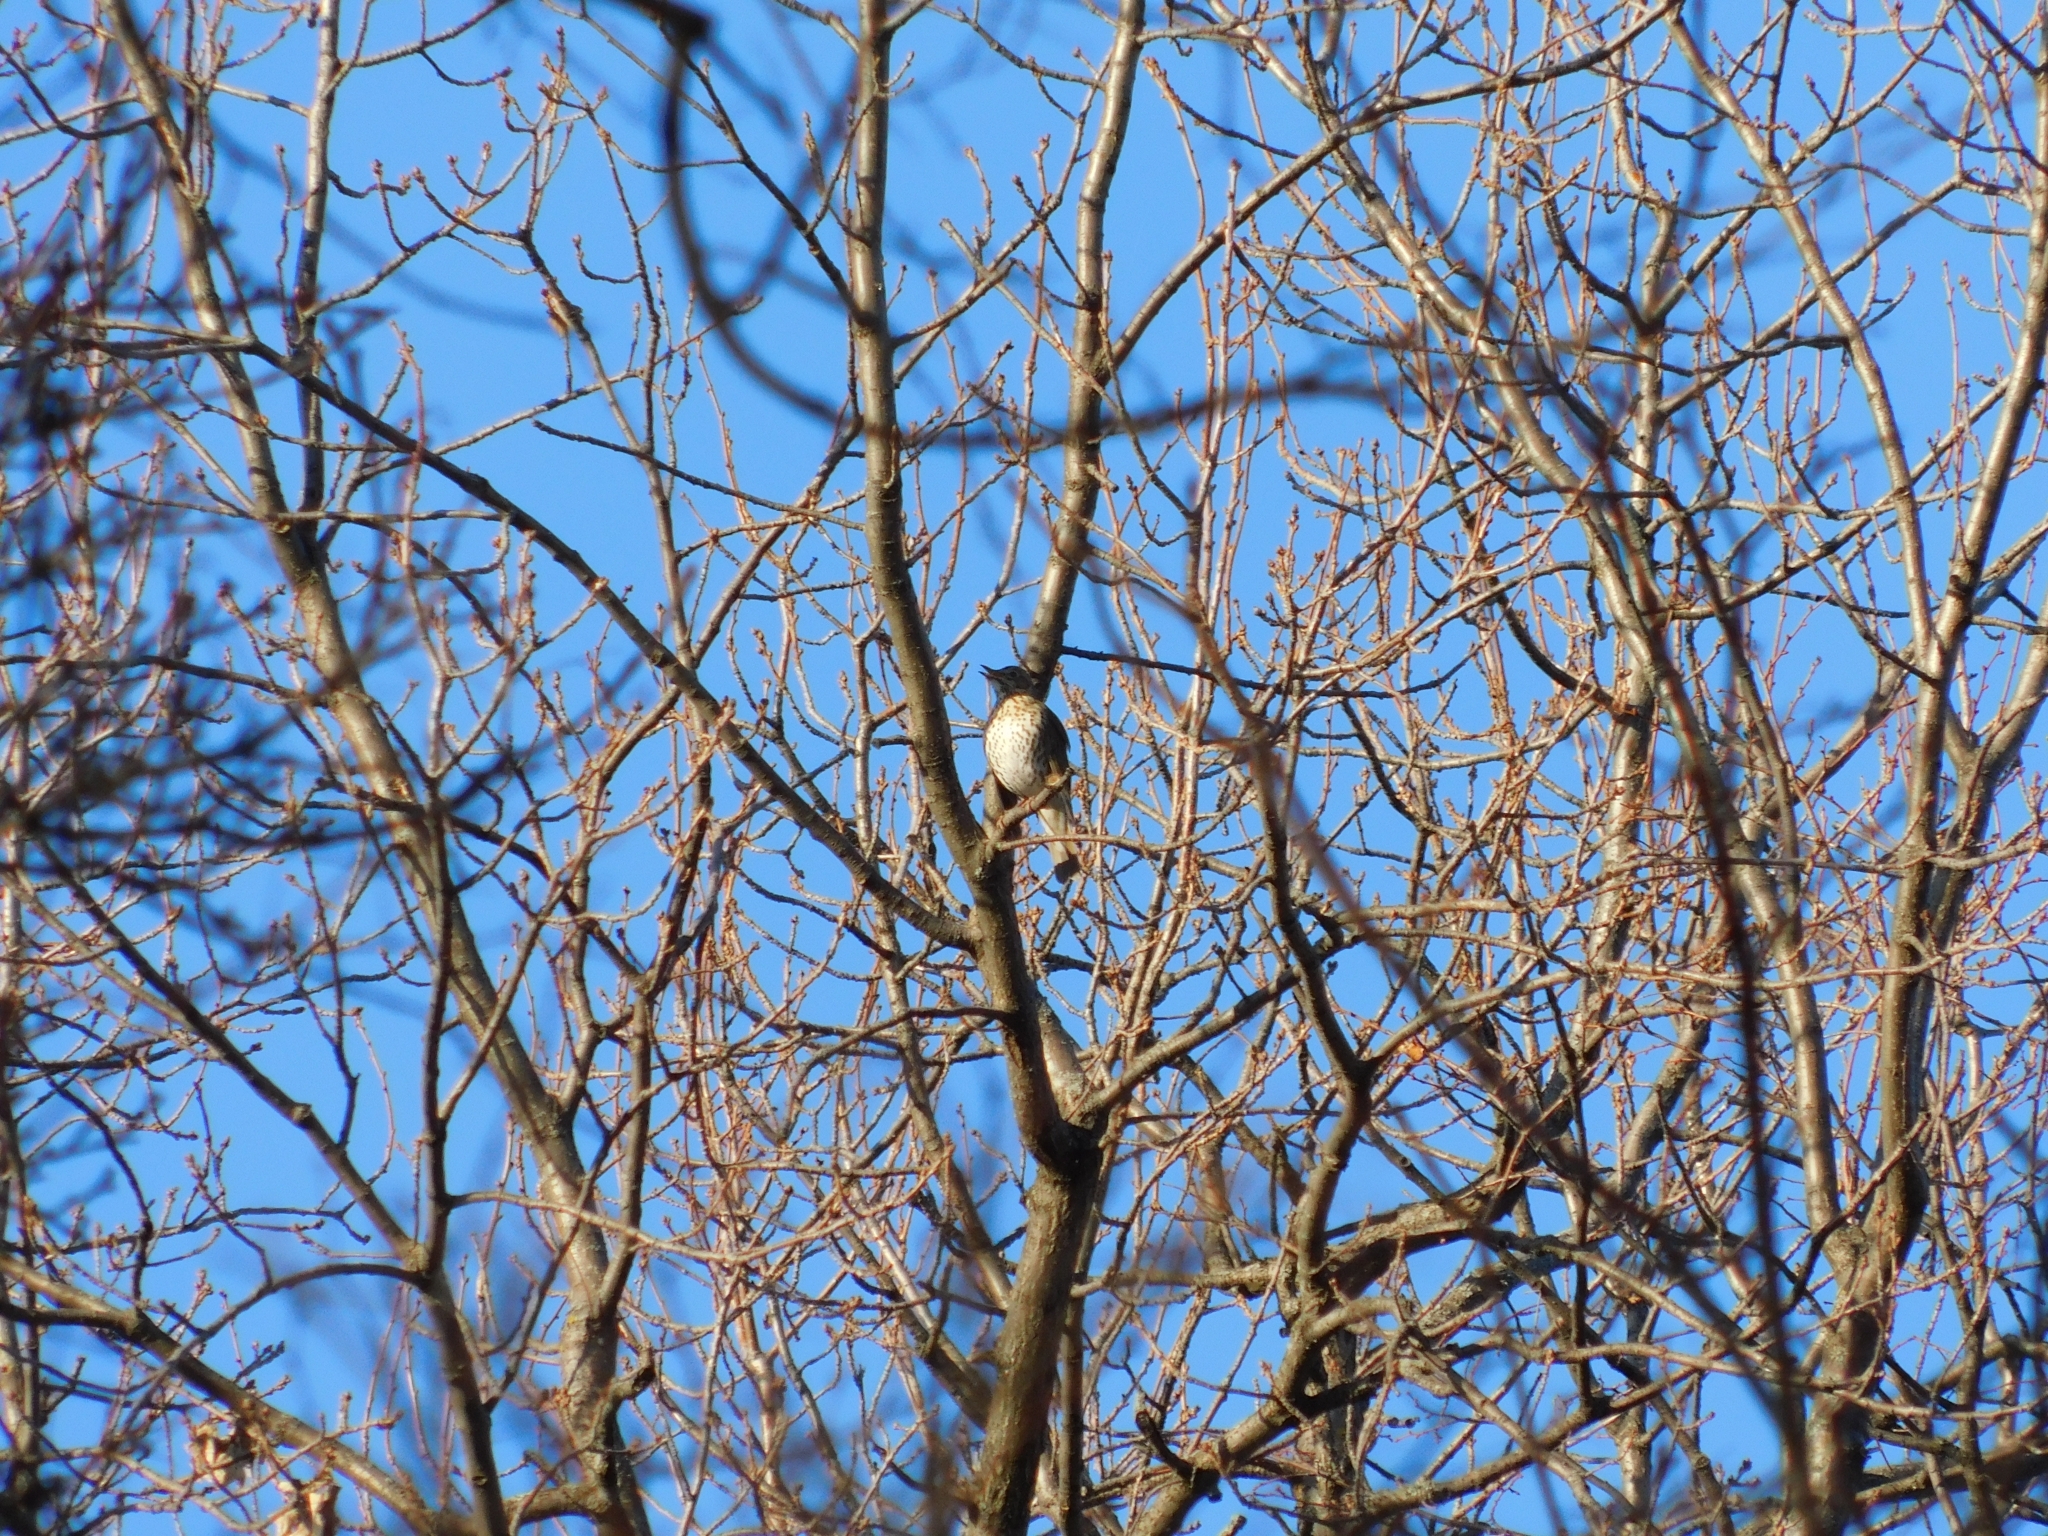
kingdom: Animalia
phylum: Chordata
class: Aves
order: Passeriformes
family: Turdidae
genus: Turdus
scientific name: Turdus philomelos
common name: Song thrush
